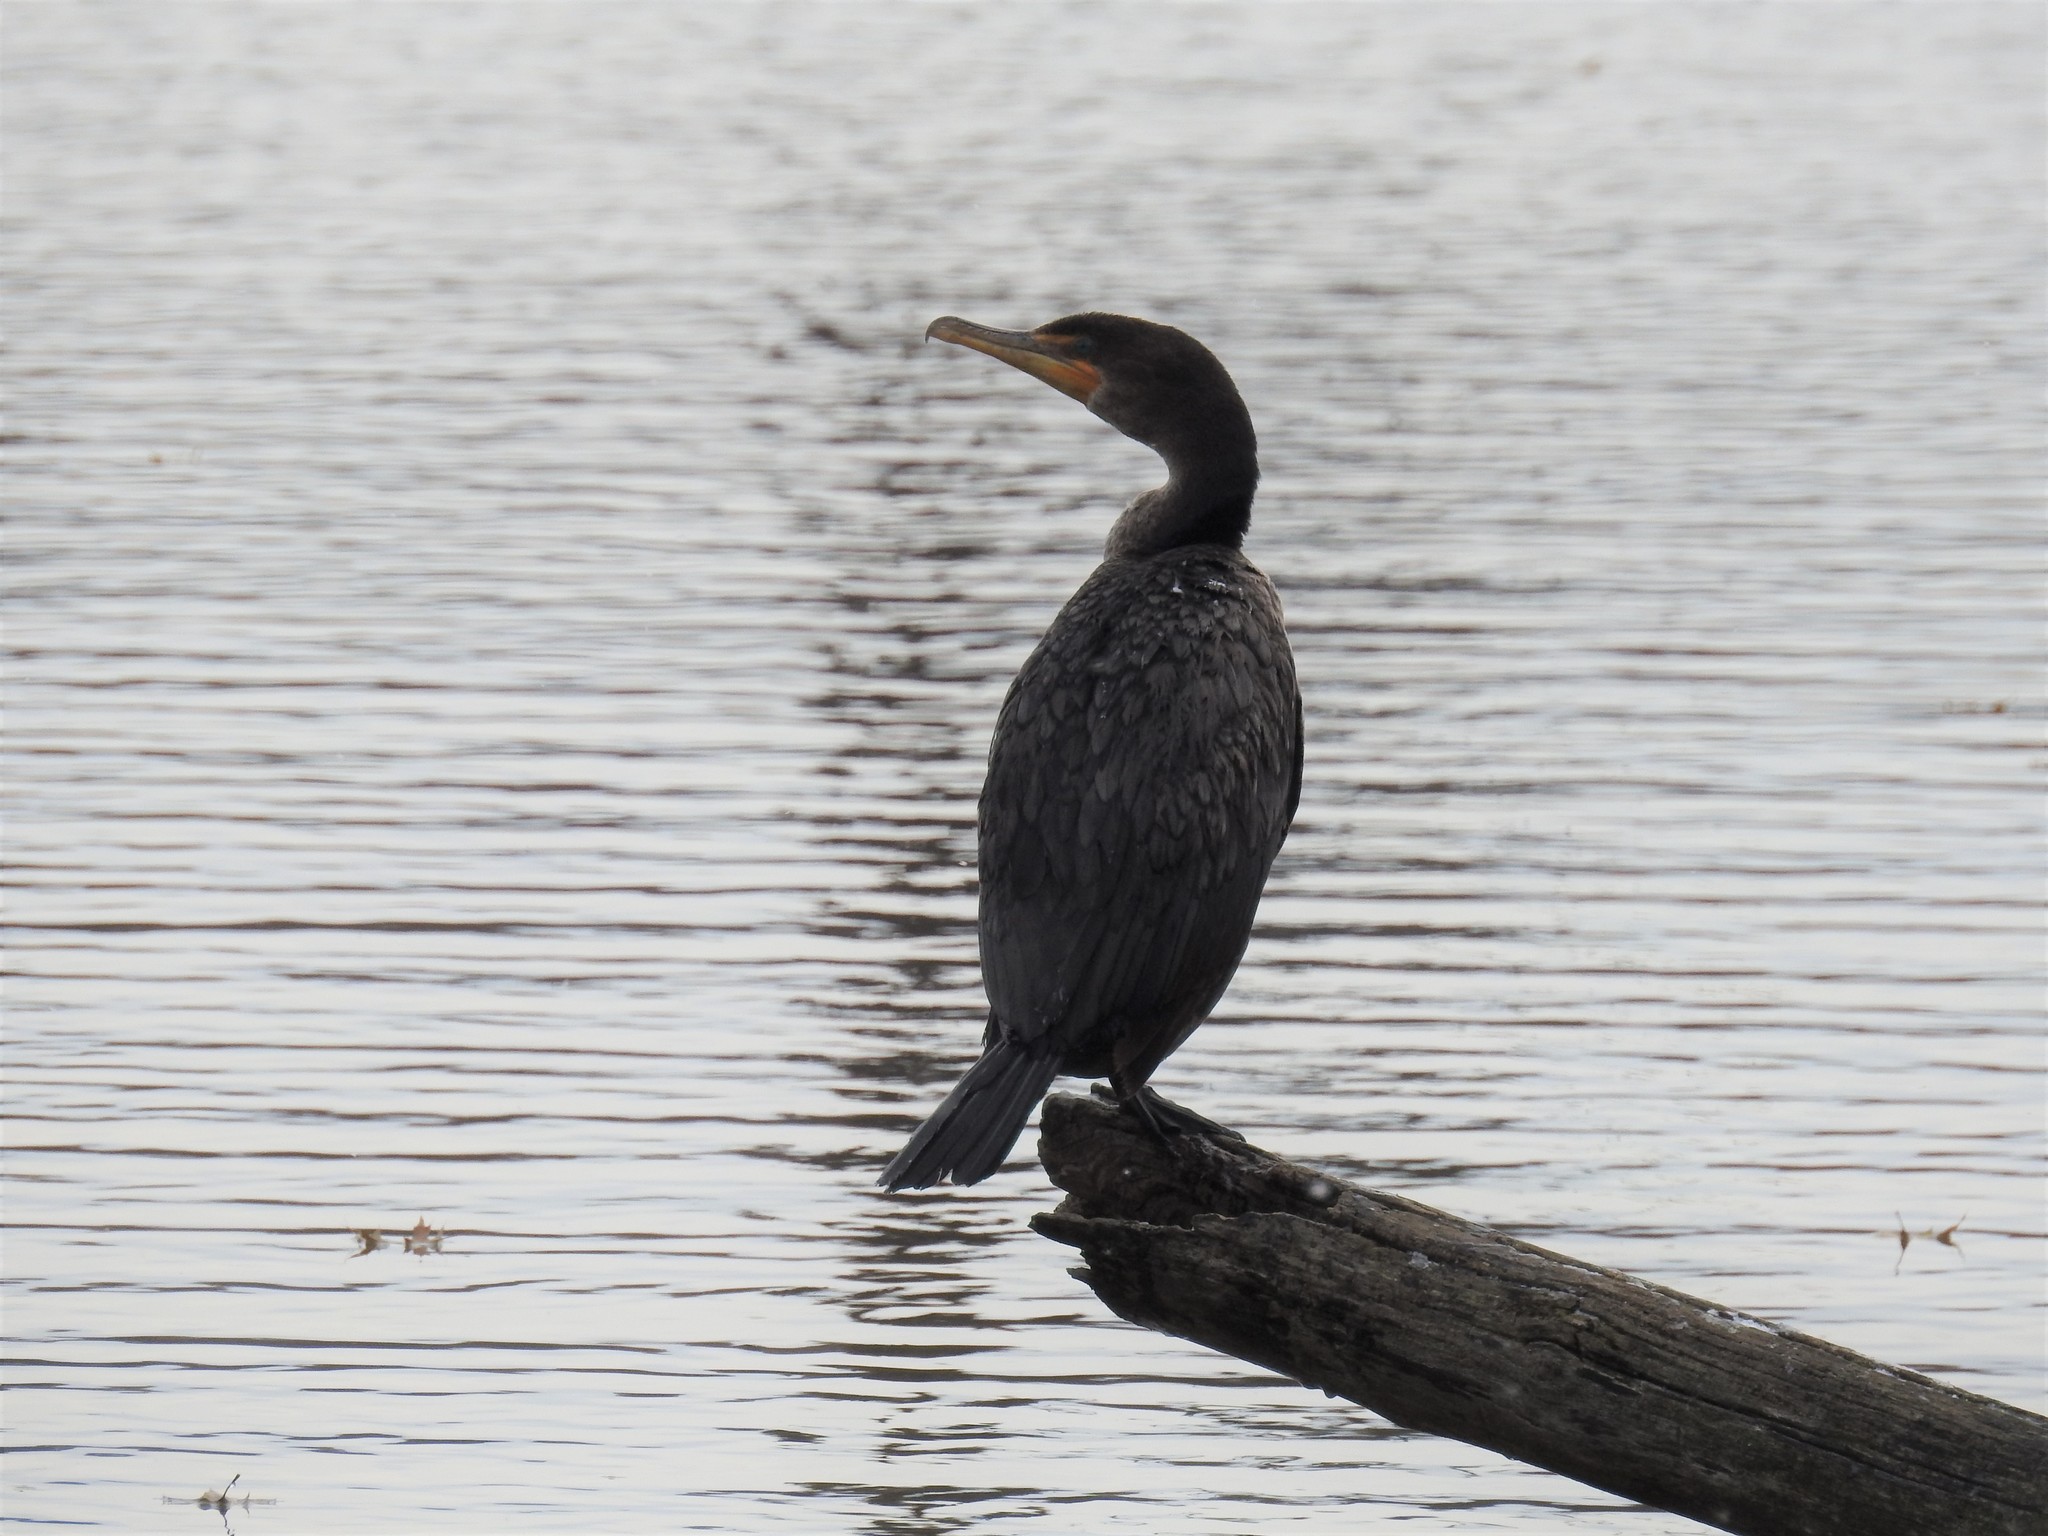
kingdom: Animalia
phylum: Chordata
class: Aves
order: Suliformes
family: Phalacrocoracidae
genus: Phalacrocorax
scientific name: Phalacrocorax auritus
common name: Double-crested cormorant
